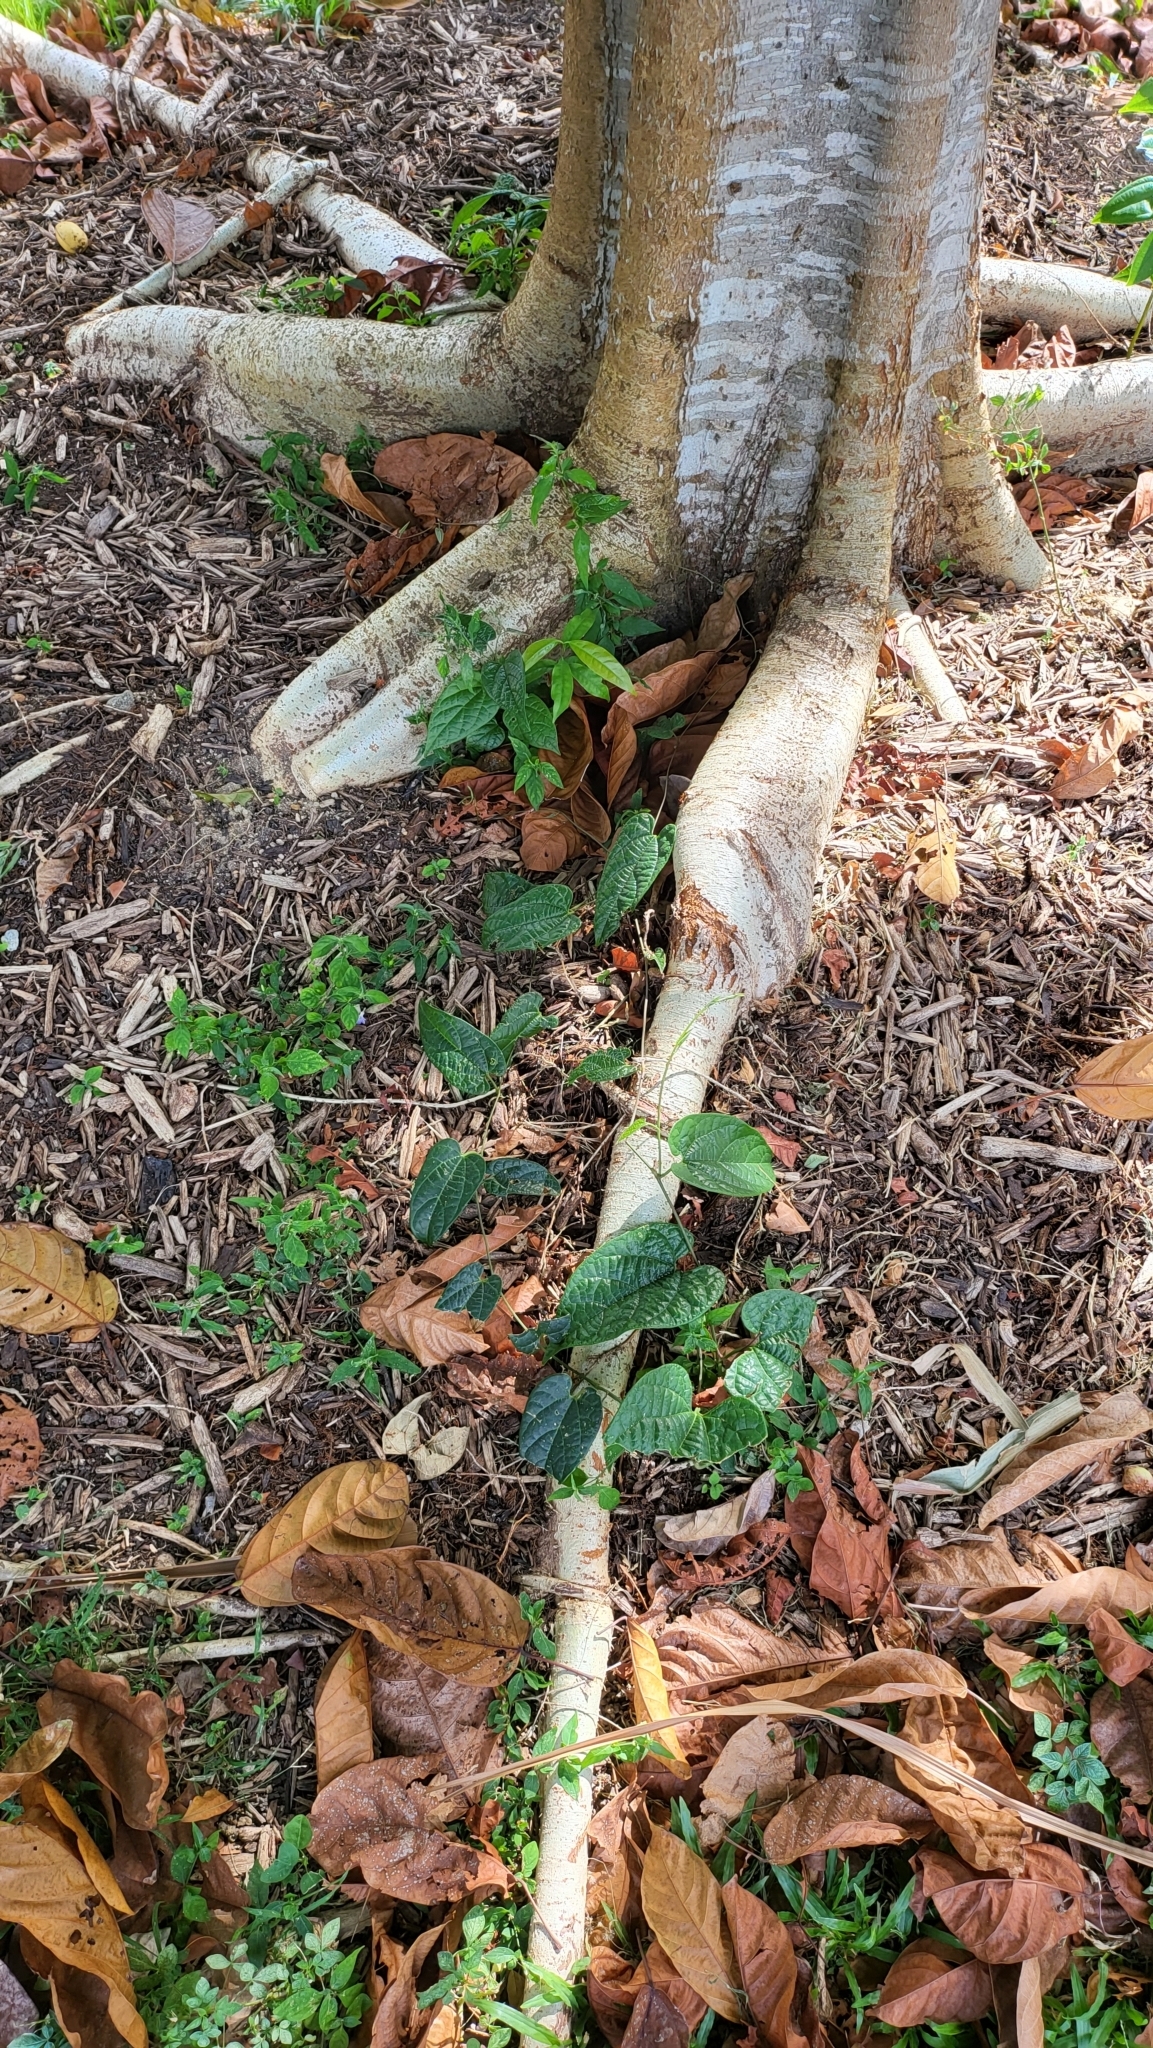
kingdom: Plantae
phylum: Tracheophyta
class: Magnoliopsida
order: Piperales
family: Aristolochiaceae
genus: Aristolochia
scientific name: Aristolochia acuminata
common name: Indian birthwort
